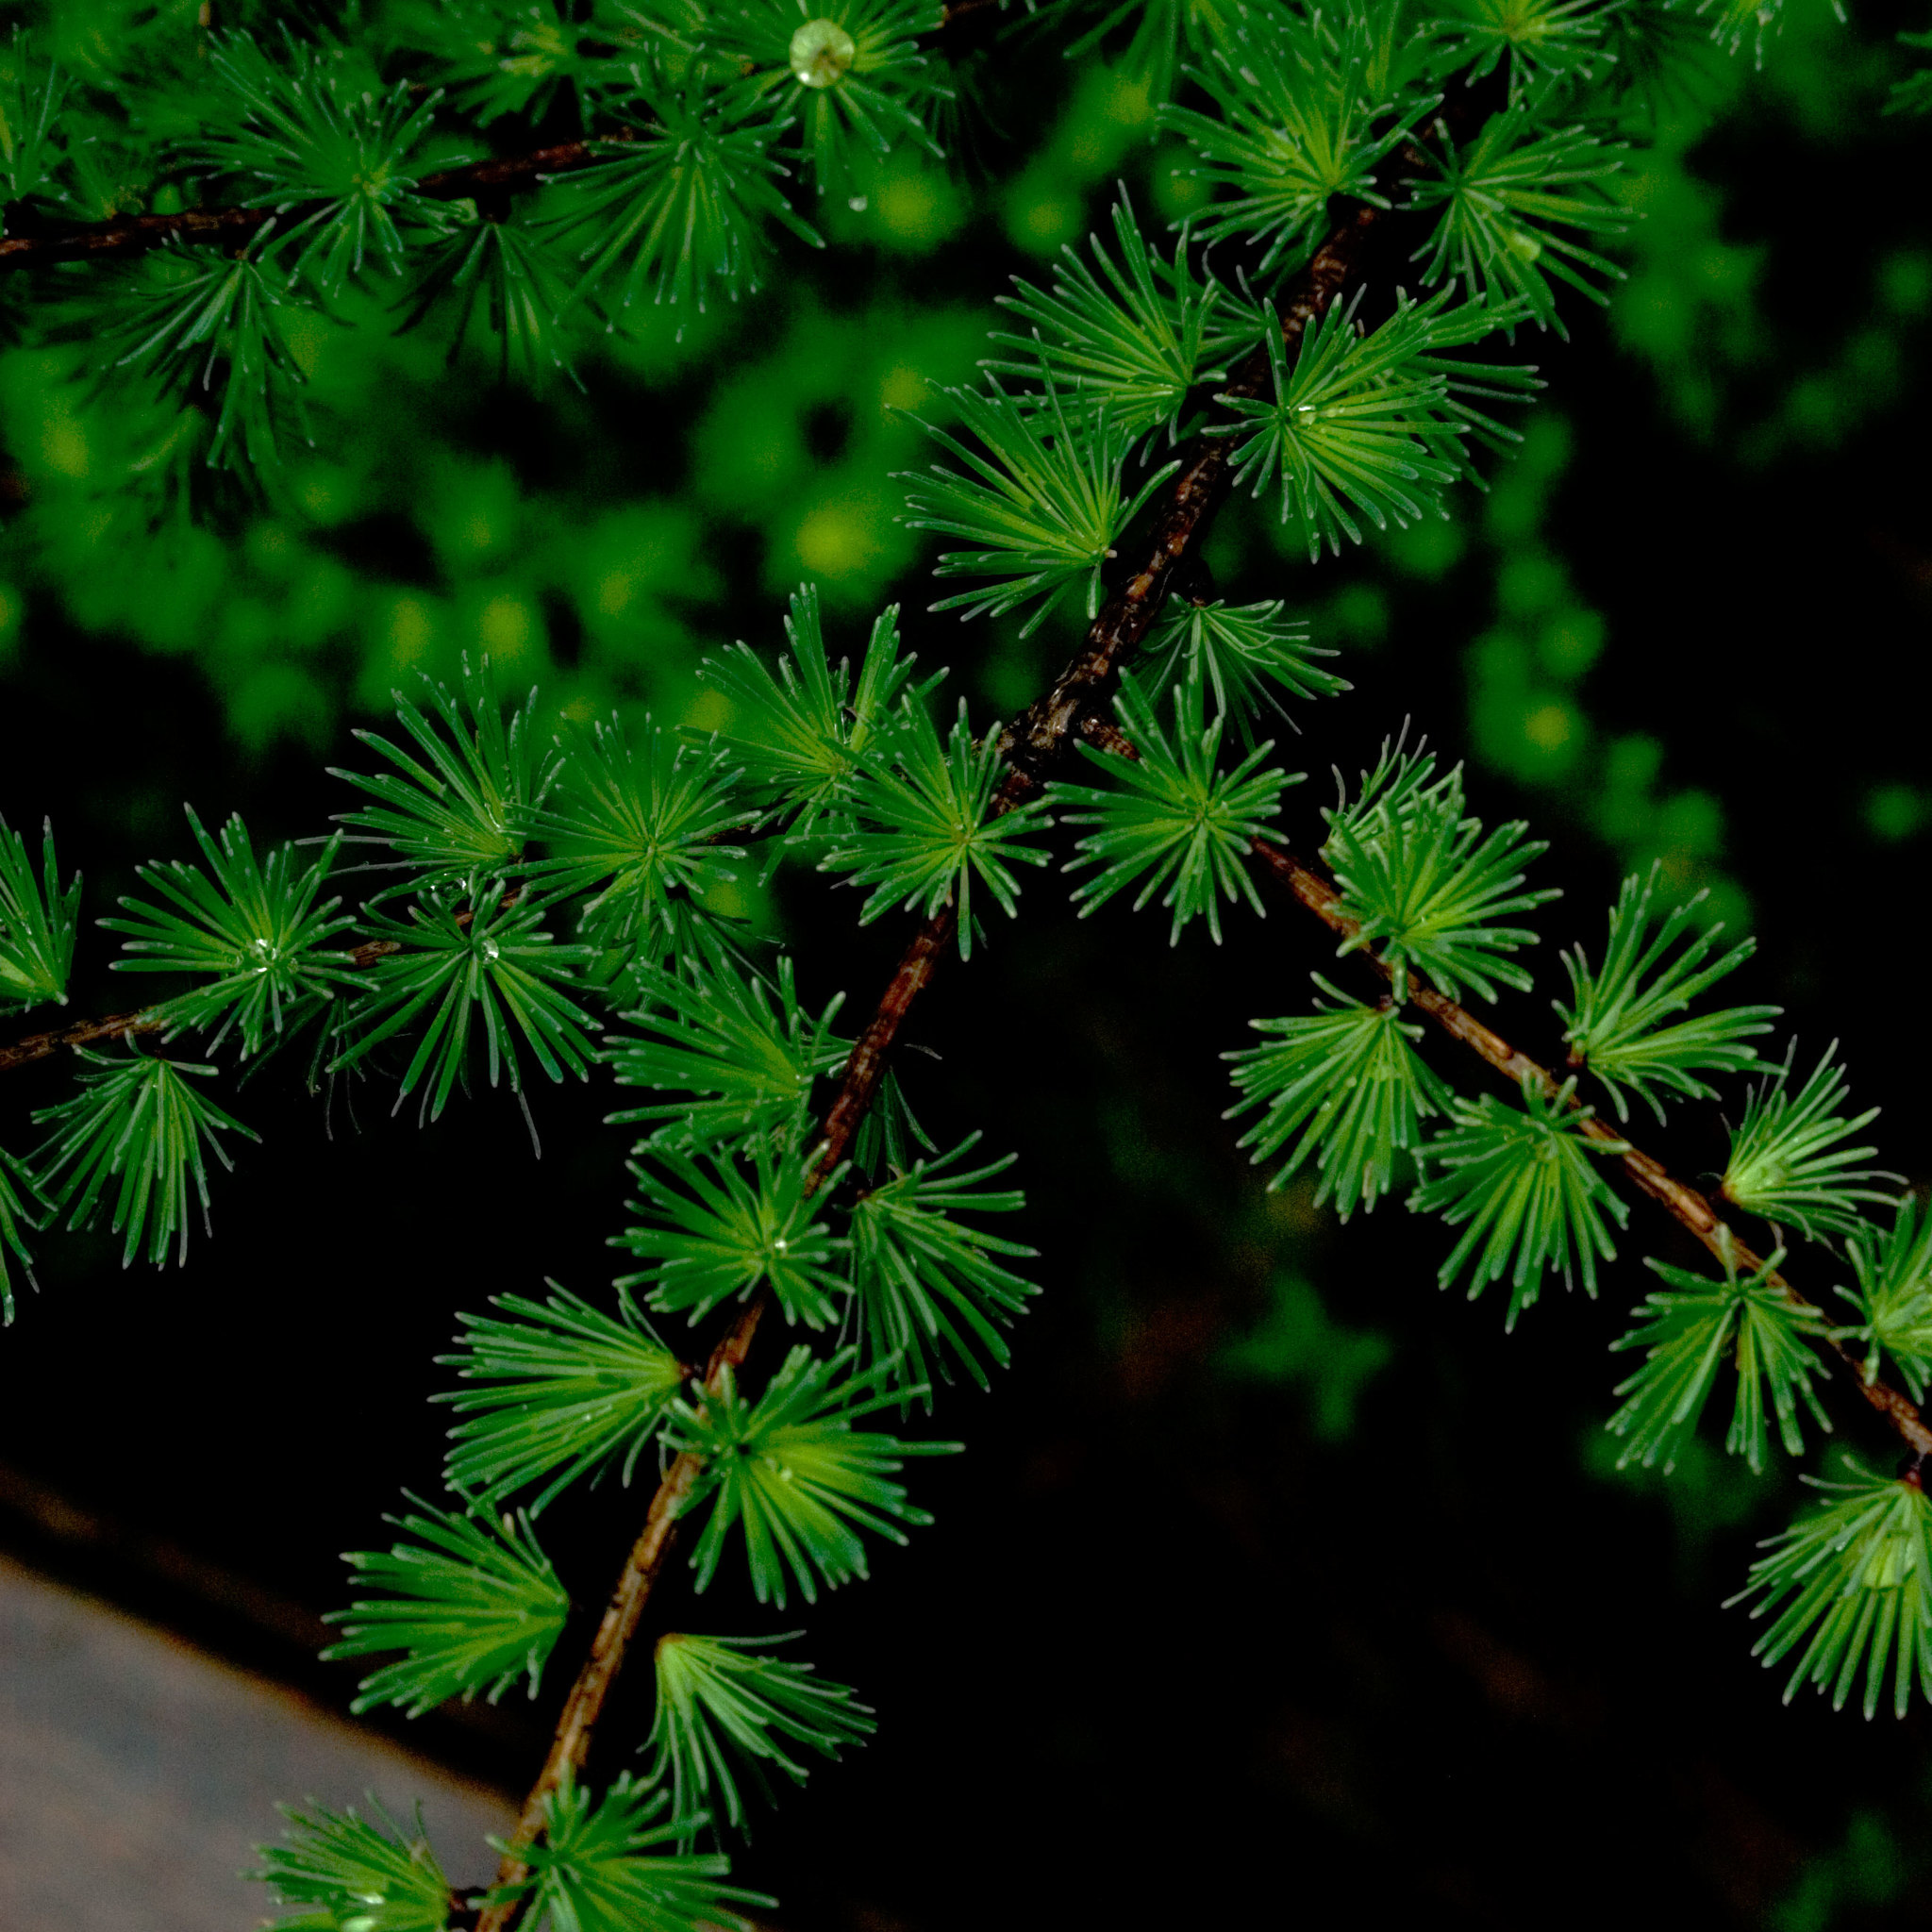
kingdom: Plantae
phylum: Tracheophyta
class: Pinopsida
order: Pinales
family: Pinaceae
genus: Larix
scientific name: Larix laricina
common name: American larch
